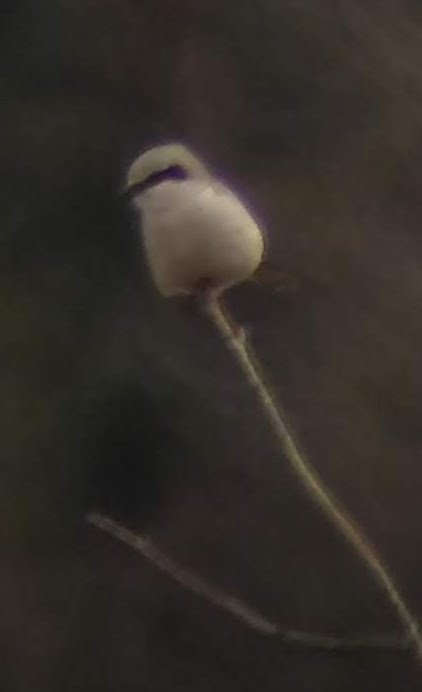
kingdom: Animalia
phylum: Chordata
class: Aves
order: Passeriformes
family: Laniidae
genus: Lanius
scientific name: Lanius excubitor
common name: Great grey shrike
